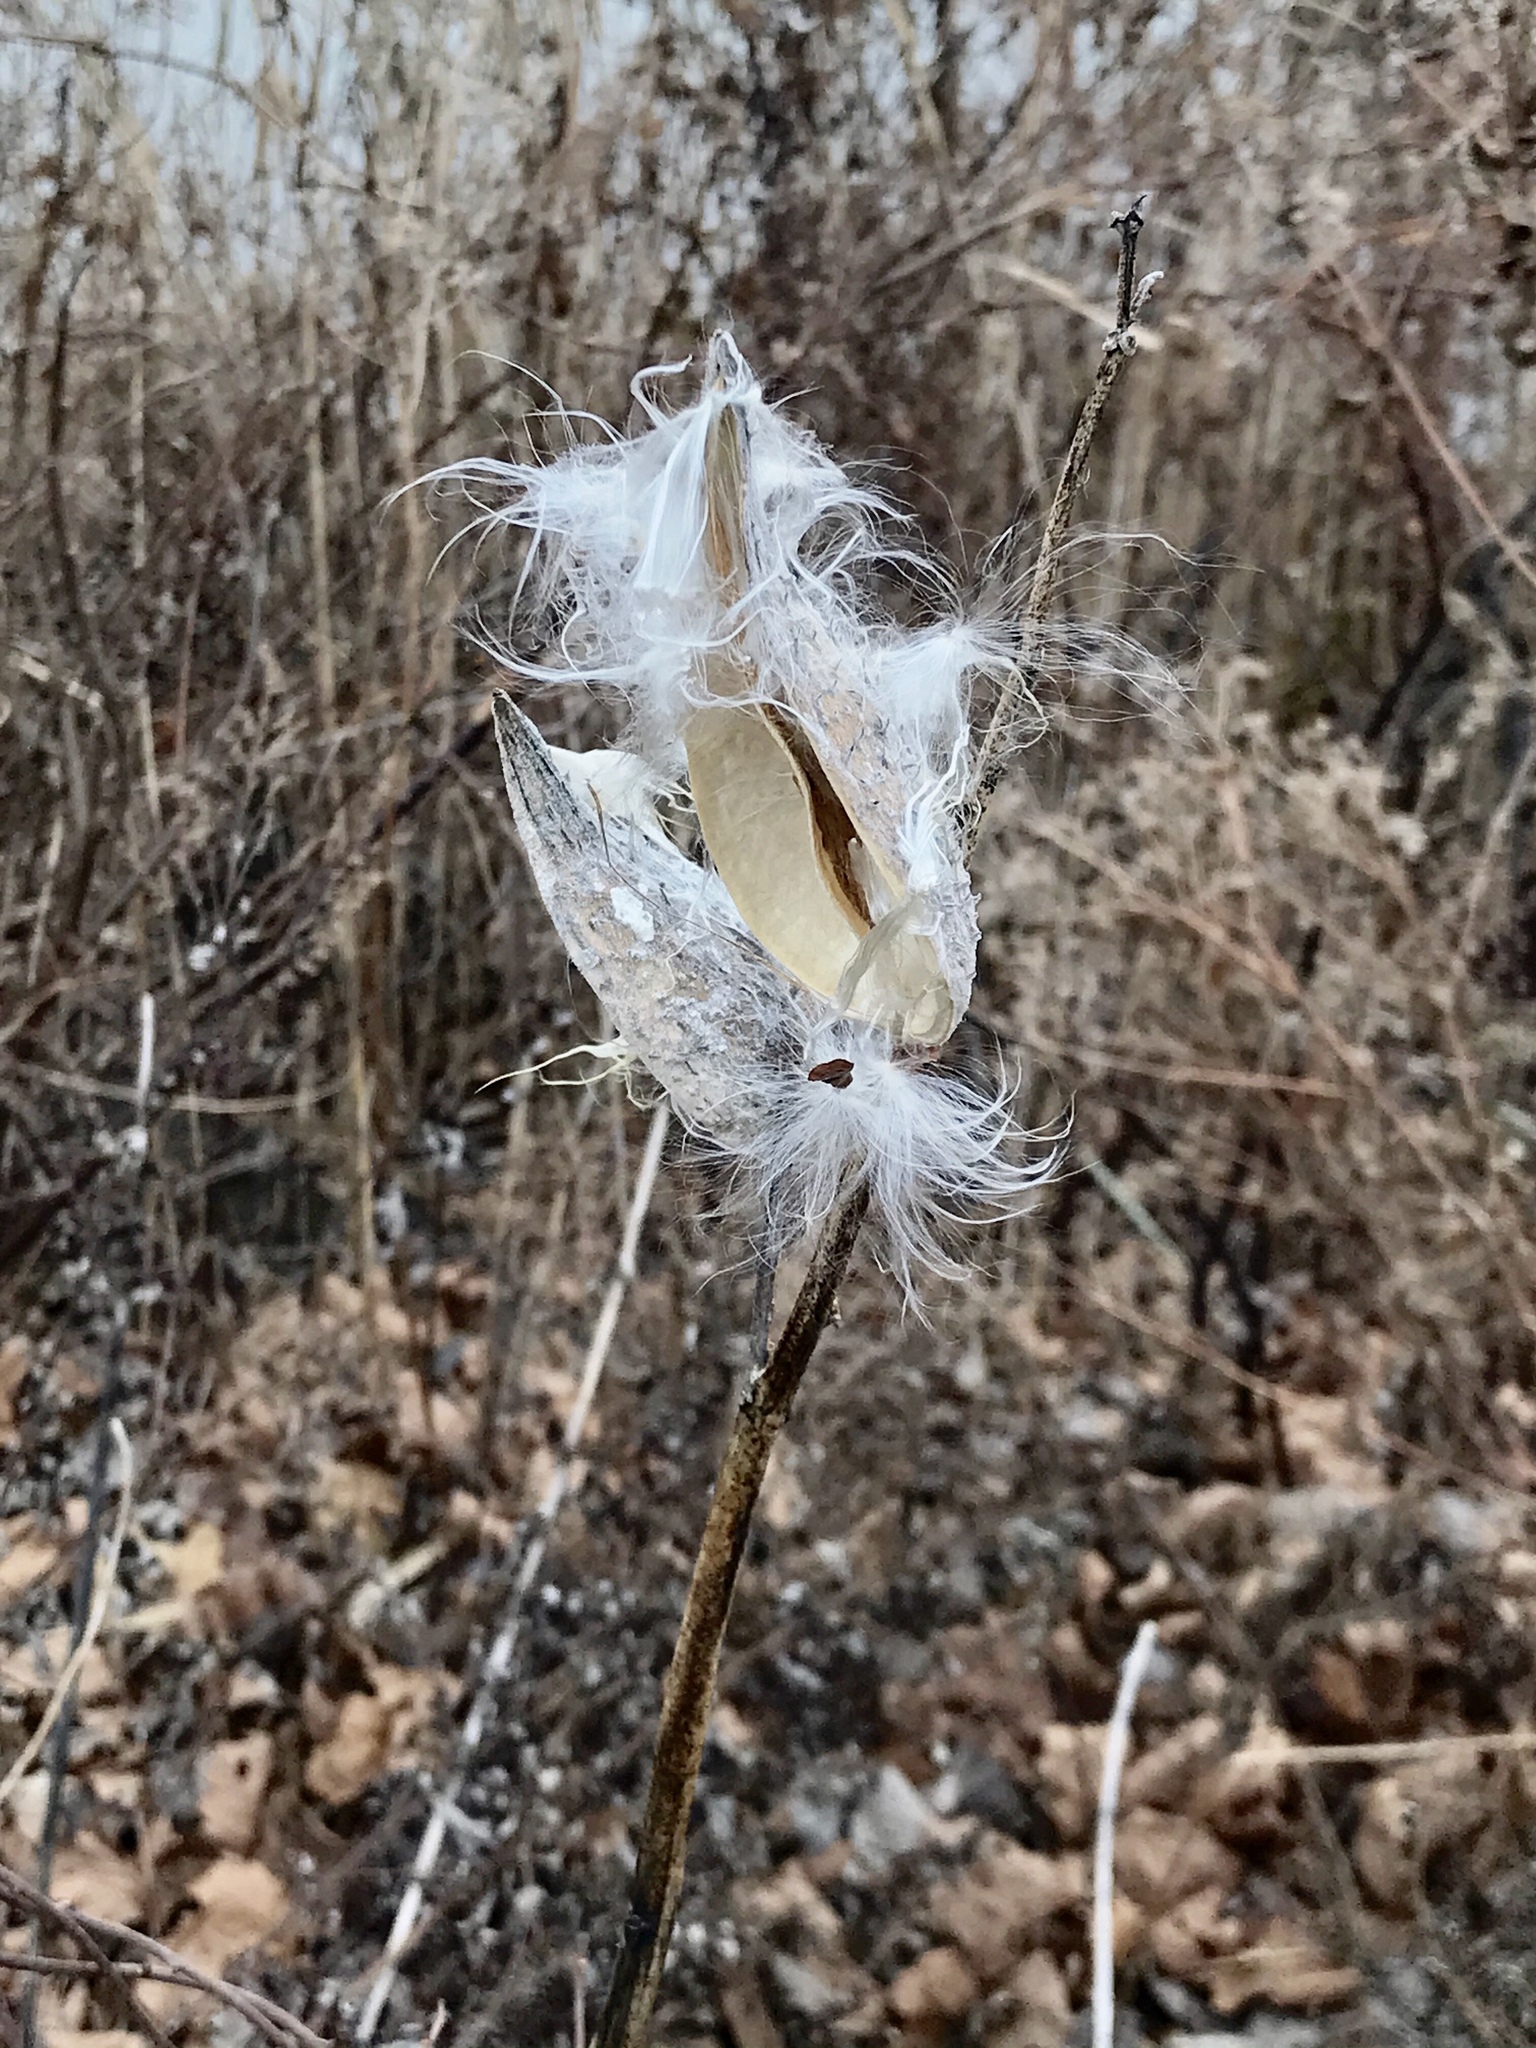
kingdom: Plantae
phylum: Tracheophyta
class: Magnoliopsida
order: Gentianales
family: Apocynaceae
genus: Asclepias
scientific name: Asclepias syriaca
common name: Common milkweed
